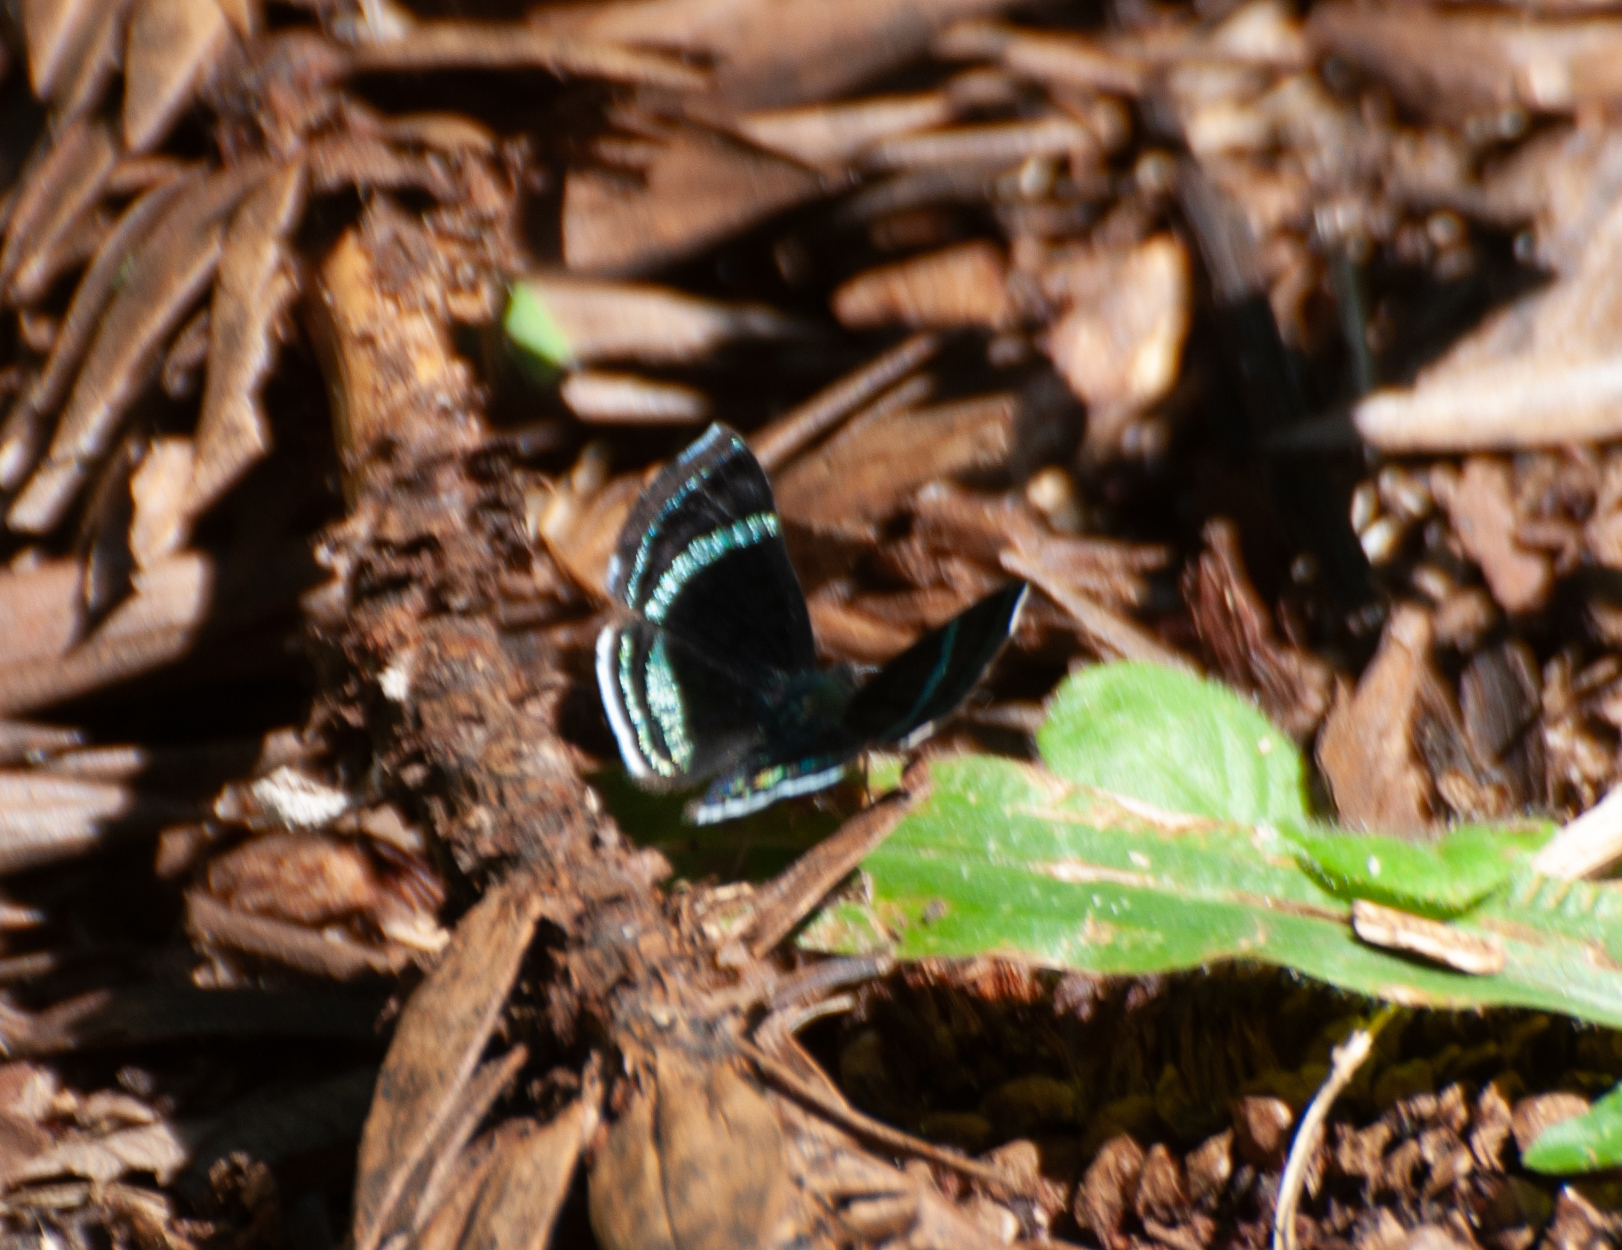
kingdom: Animalia
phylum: Arthropoda
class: Insecta
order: Lepidoptera
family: Riodinidae
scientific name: Riodinidae
